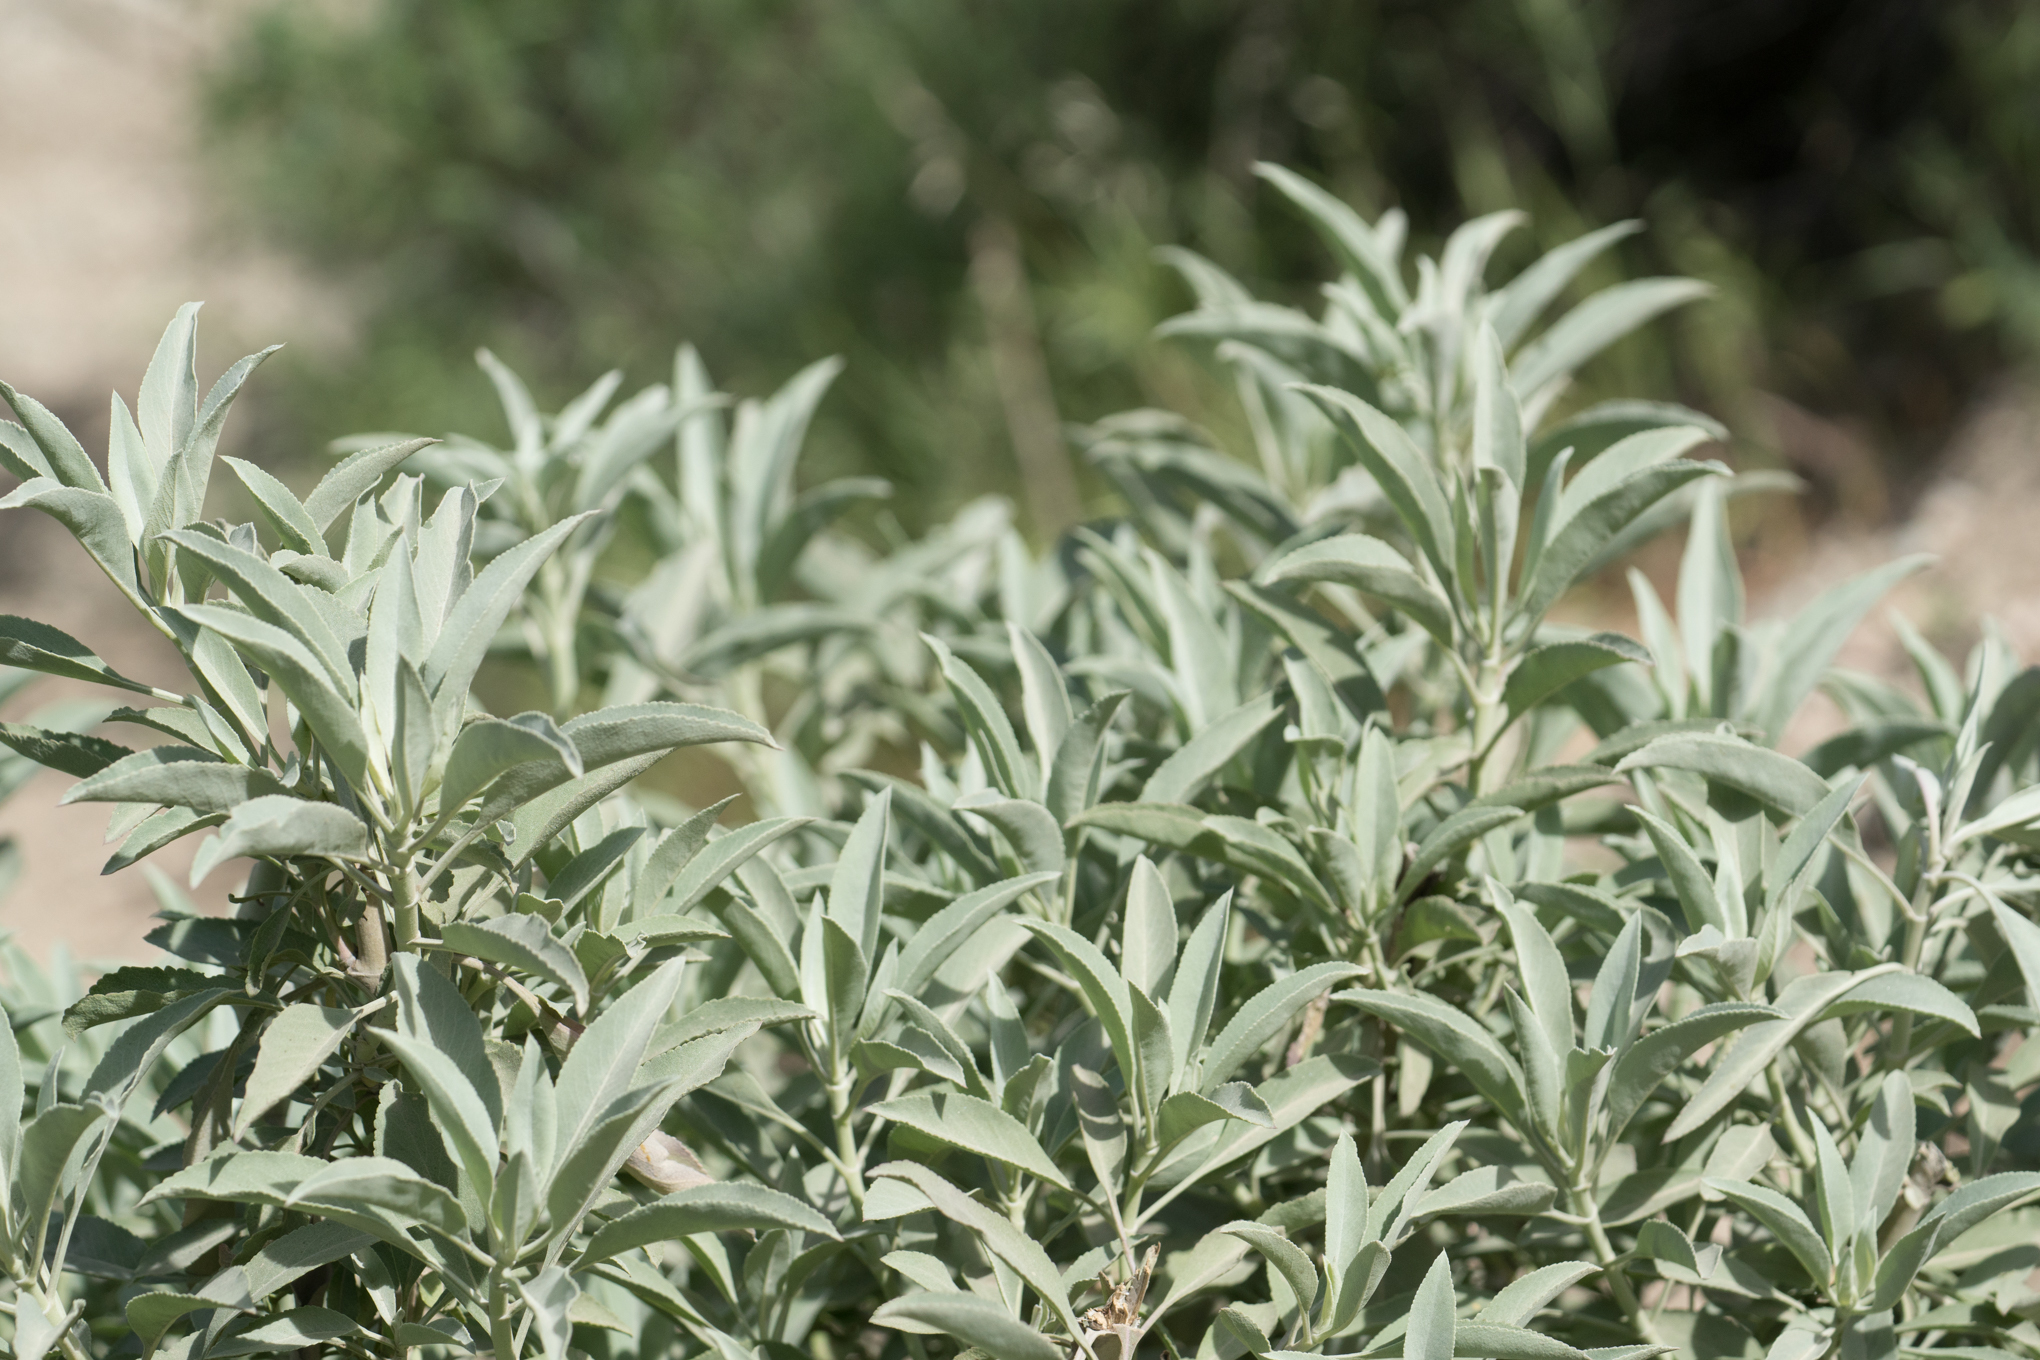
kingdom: Plantae
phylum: Tracheophyta
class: Magnoliopsida
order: Lamiales
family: Lamiaceae
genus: Salvia
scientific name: Salvia apiana
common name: White sage
